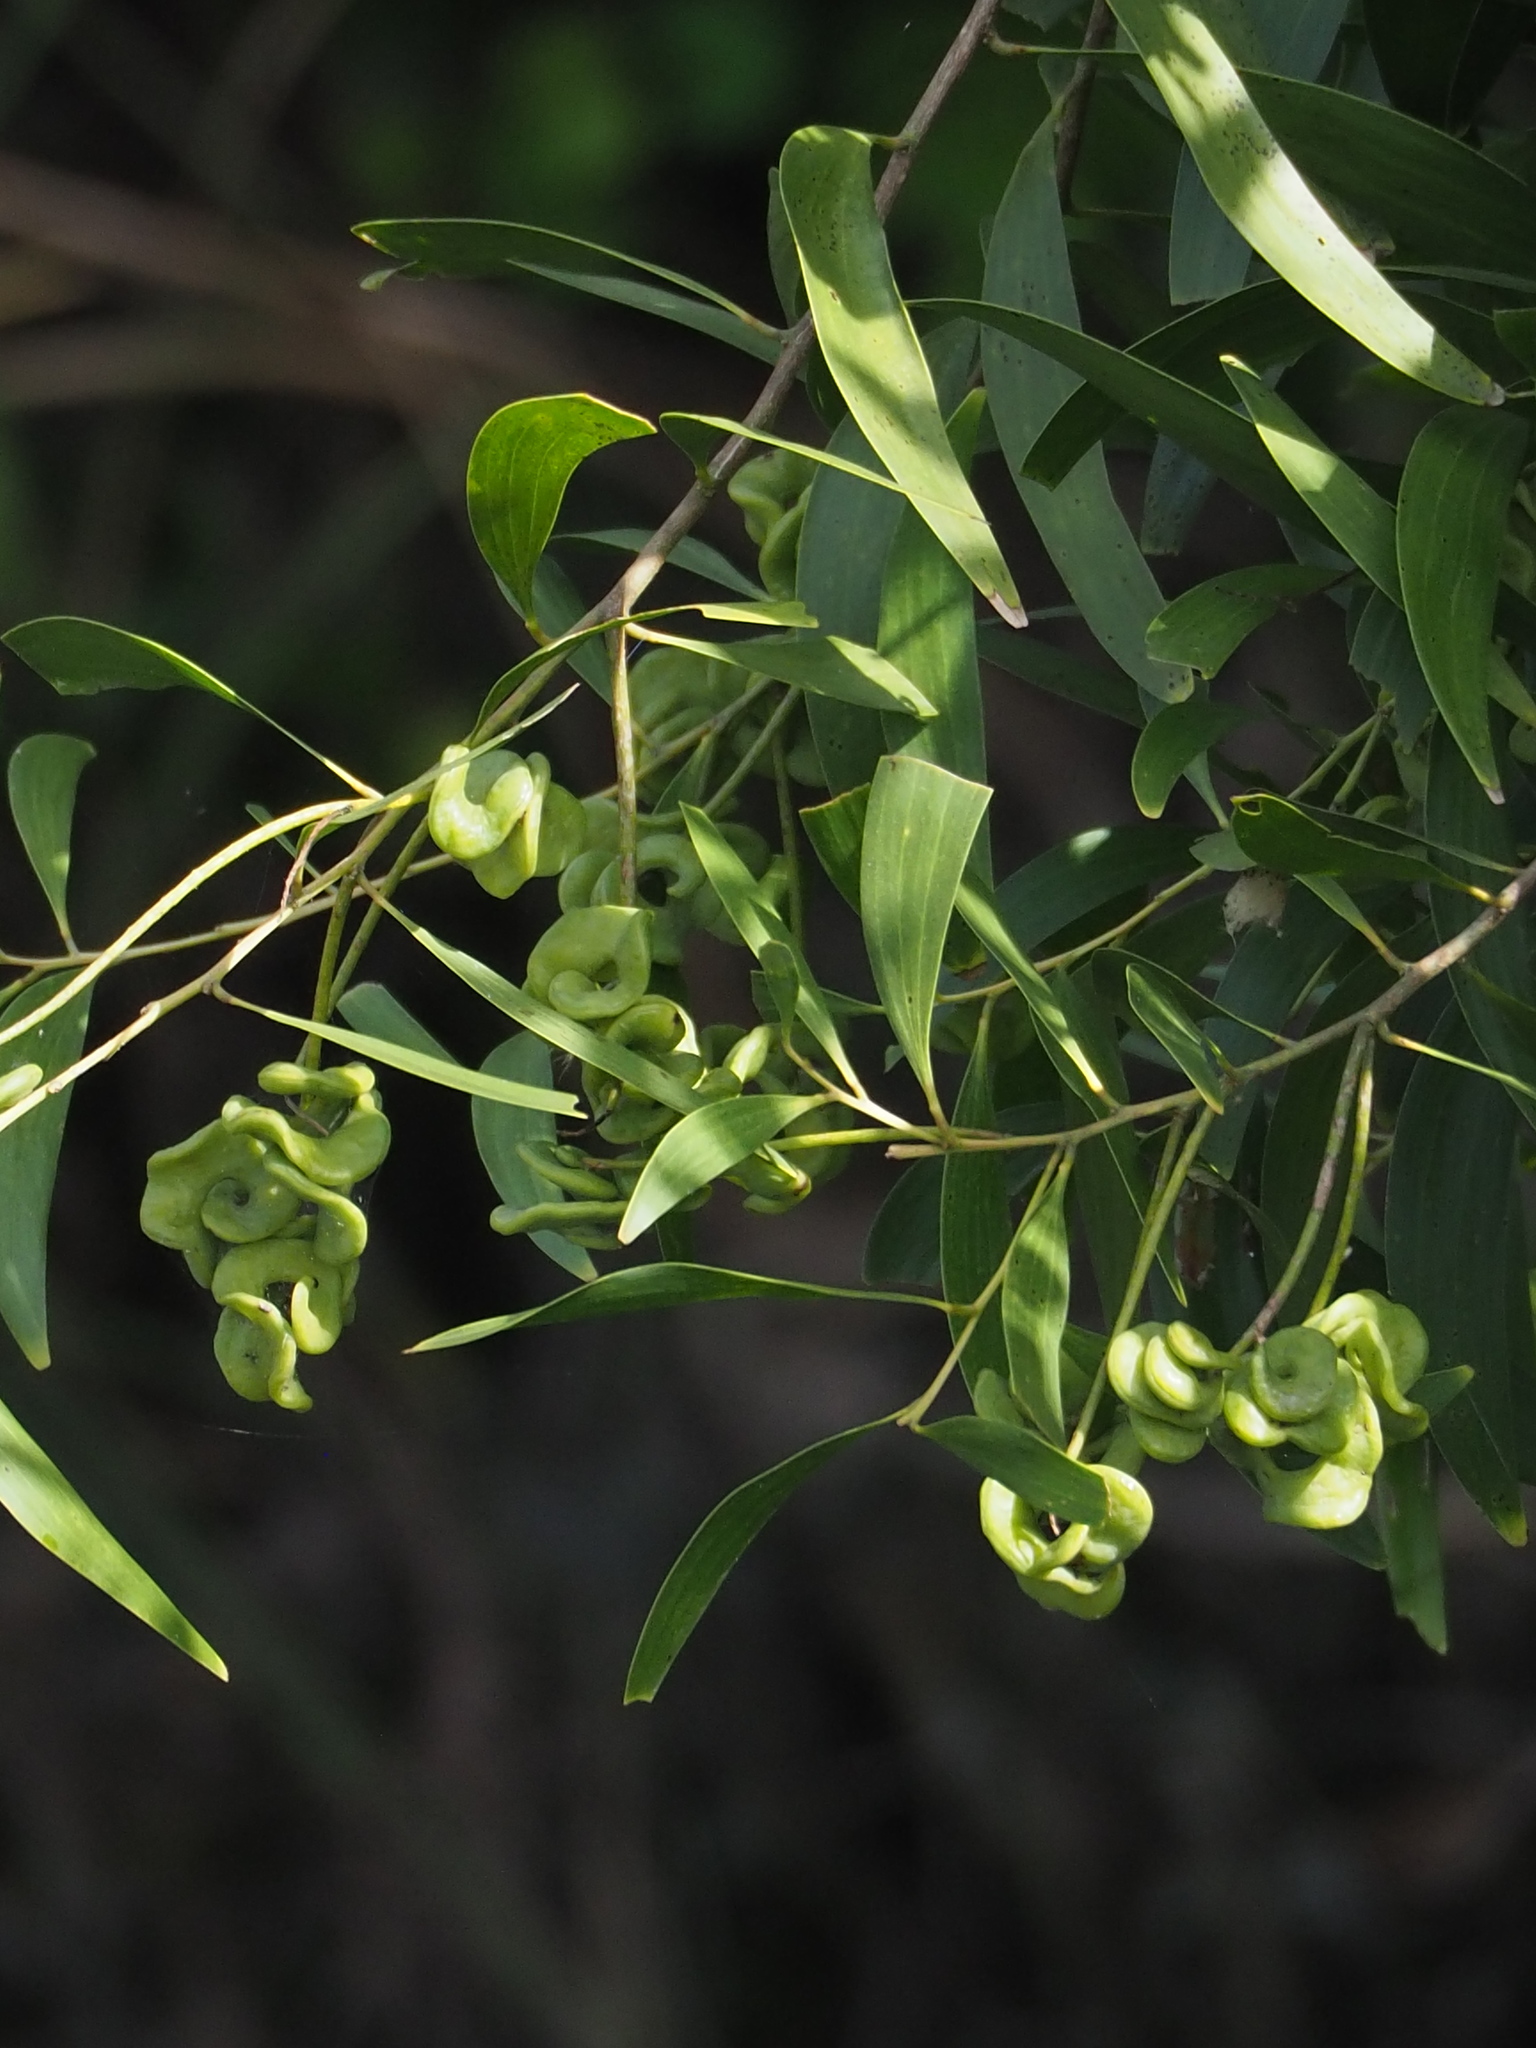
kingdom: Plantae
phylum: Tracheophyta
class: Magnoliopsida
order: Fabales
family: Fabaceae
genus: Acacia
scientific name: Acacia auriculiformis
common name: Earleaf acacia
